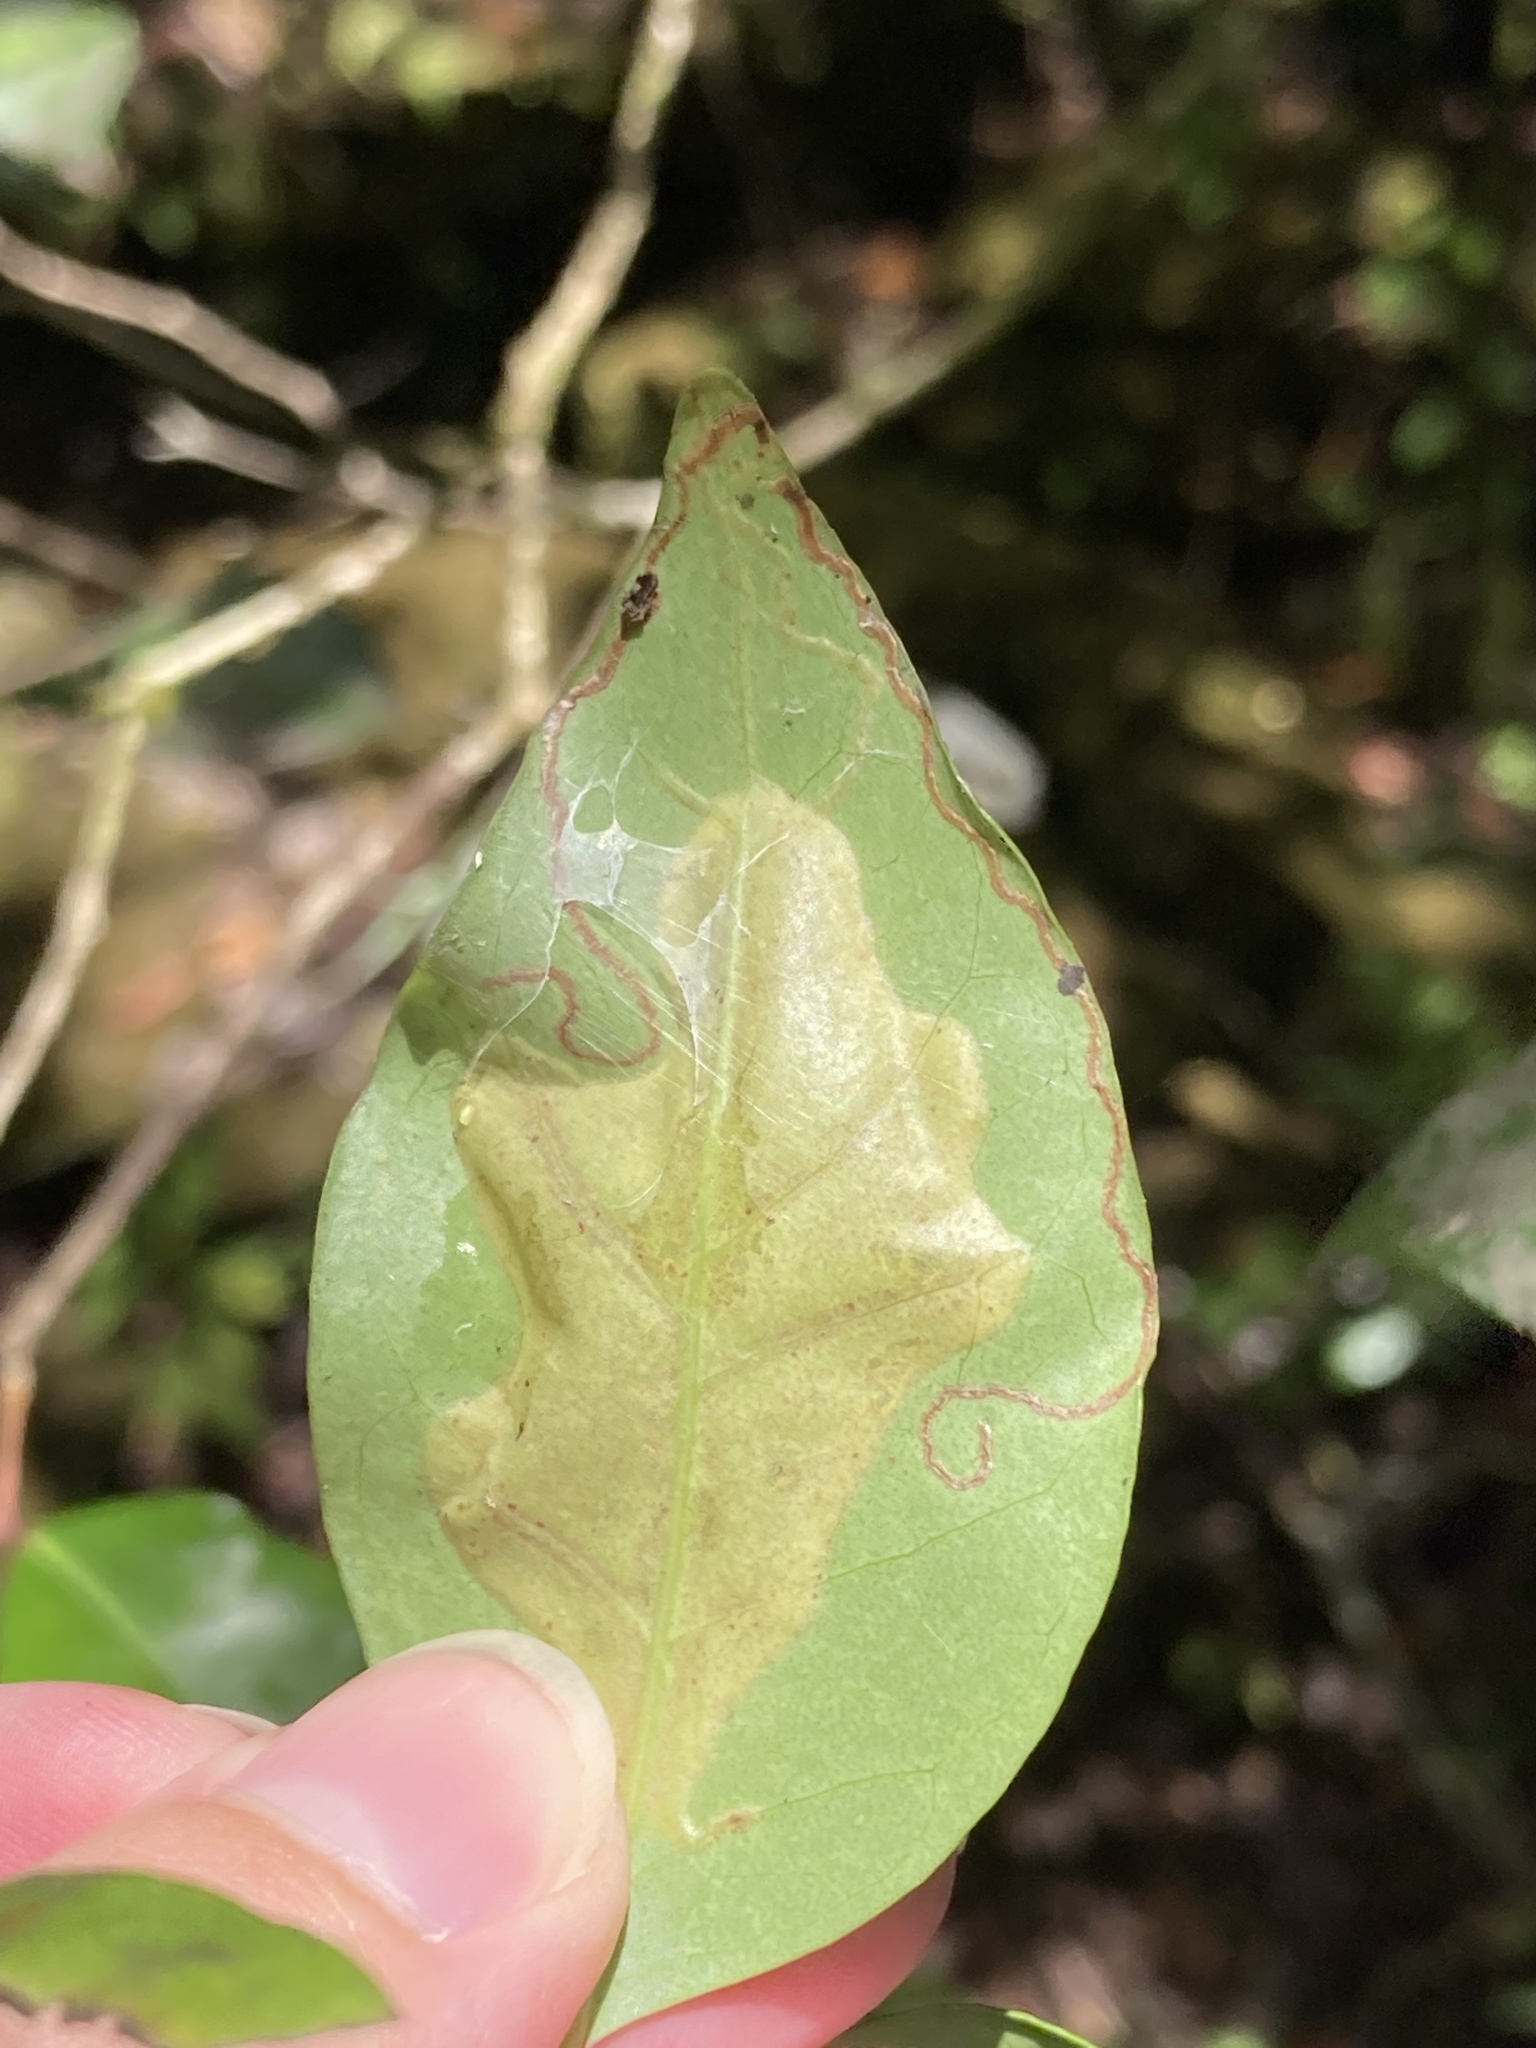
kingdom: Animalia
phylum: Arthropoda
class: Insecta
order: Lepidoptera
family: Gracillariidae
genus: Chilocampyla
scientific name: Chilocampyla dyariella
